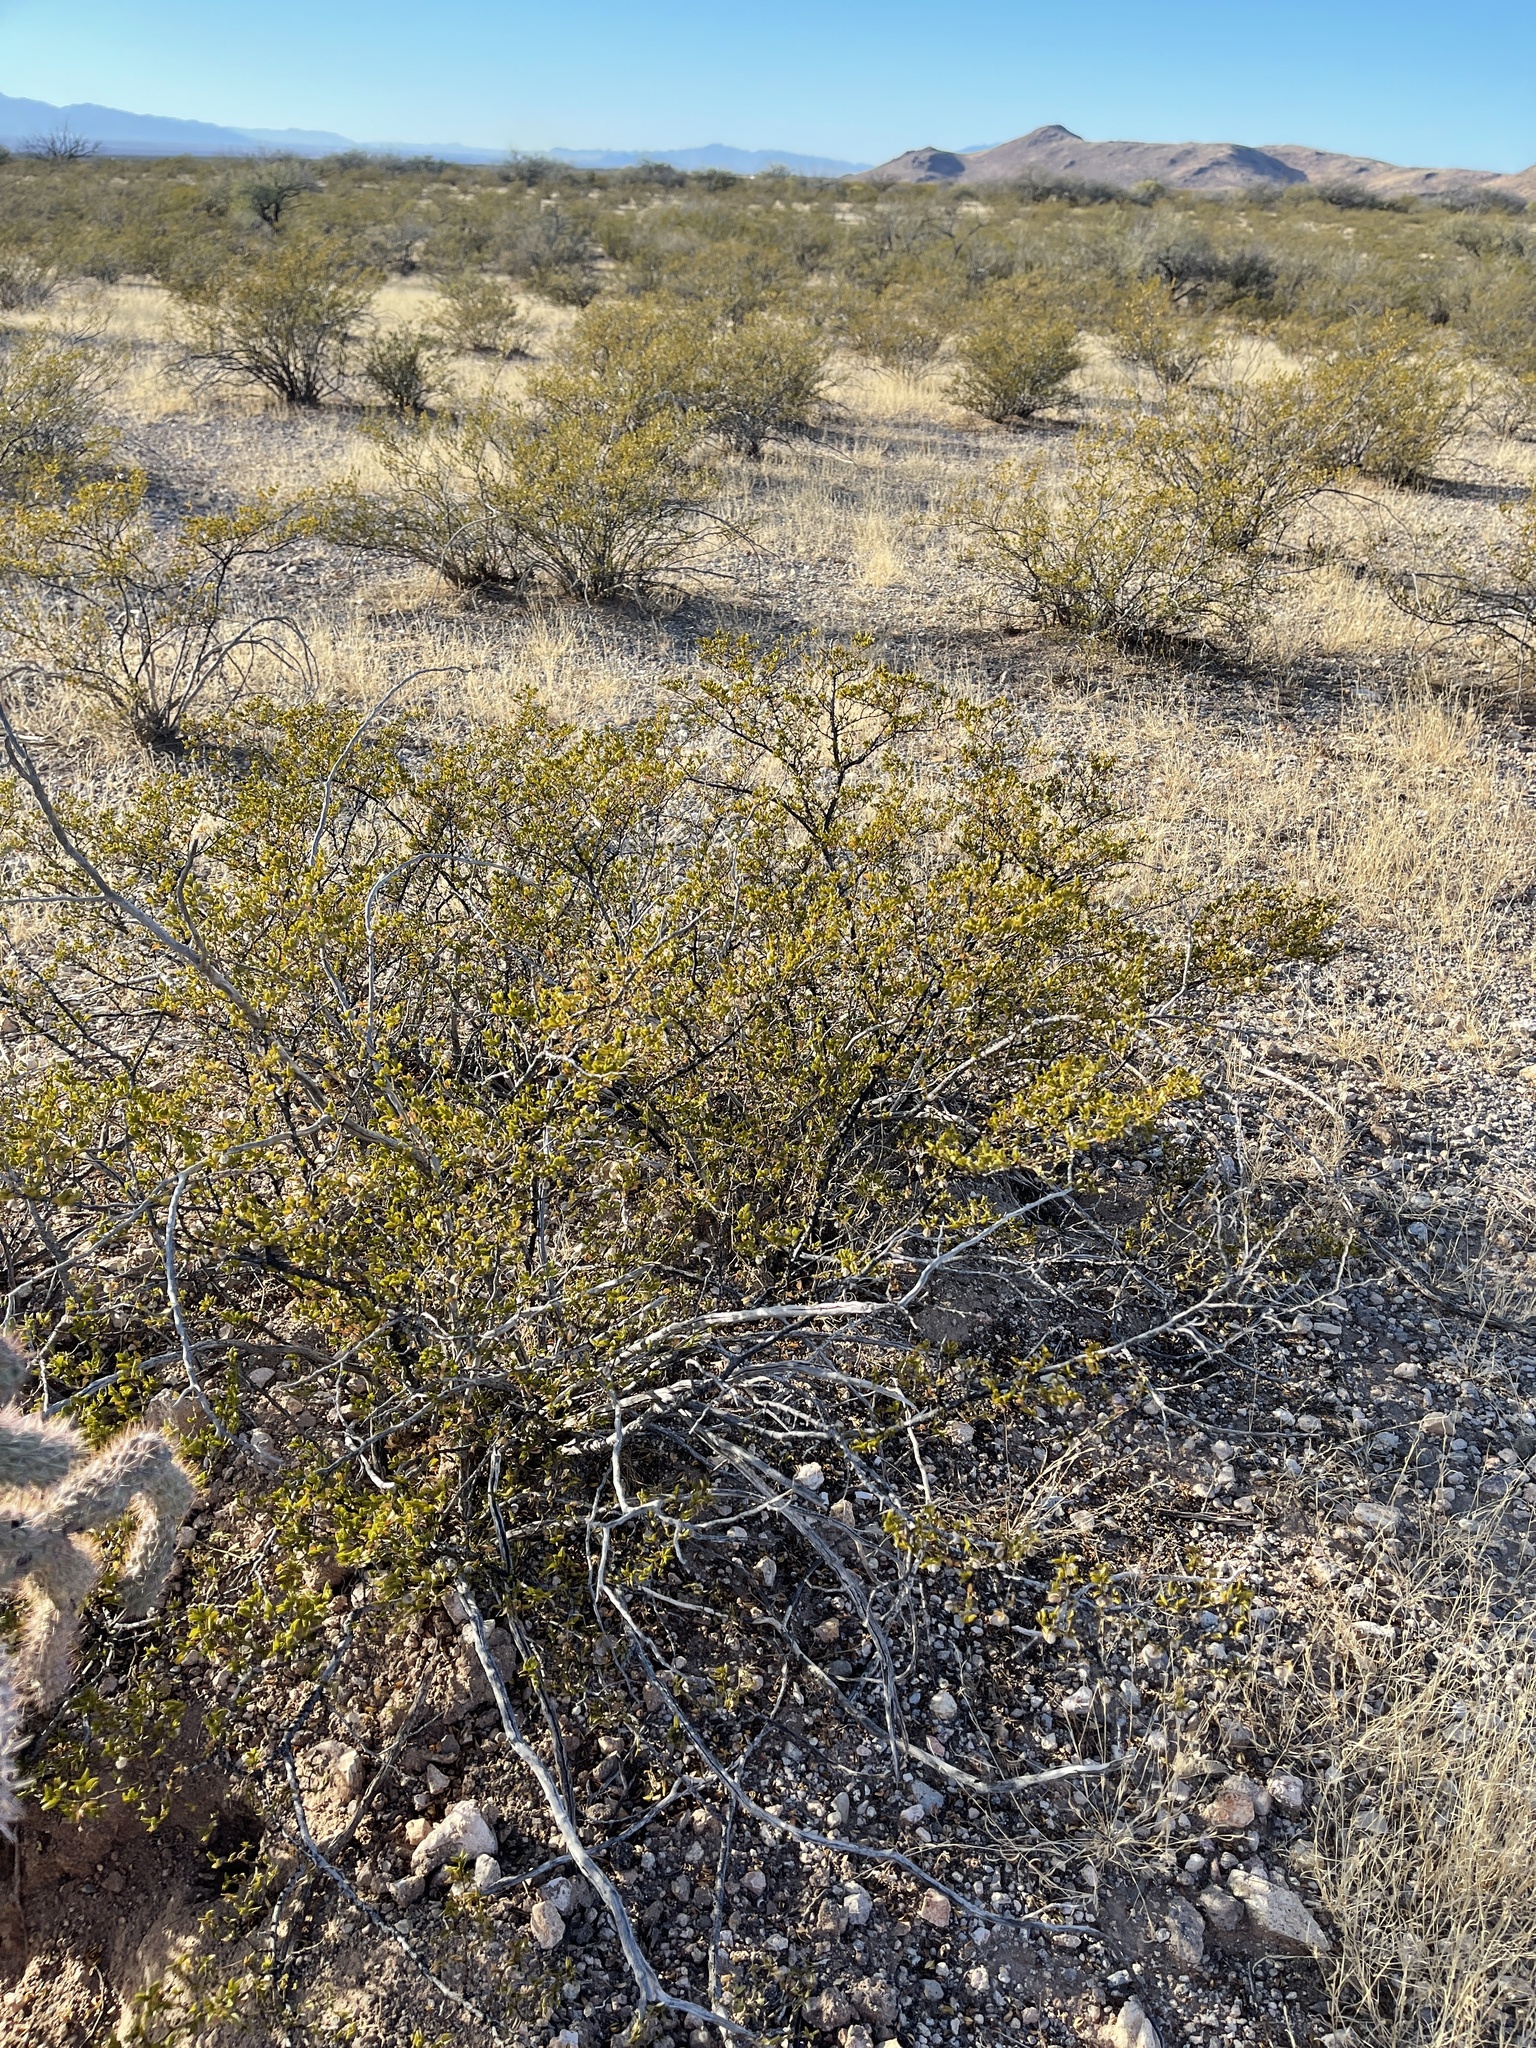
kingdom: Plantae
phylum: Tracheophyta
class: Magnoliopsida
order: Zygophyllales
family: Zygophyllaceae
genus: Larrea
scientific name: Larrea tridentata
